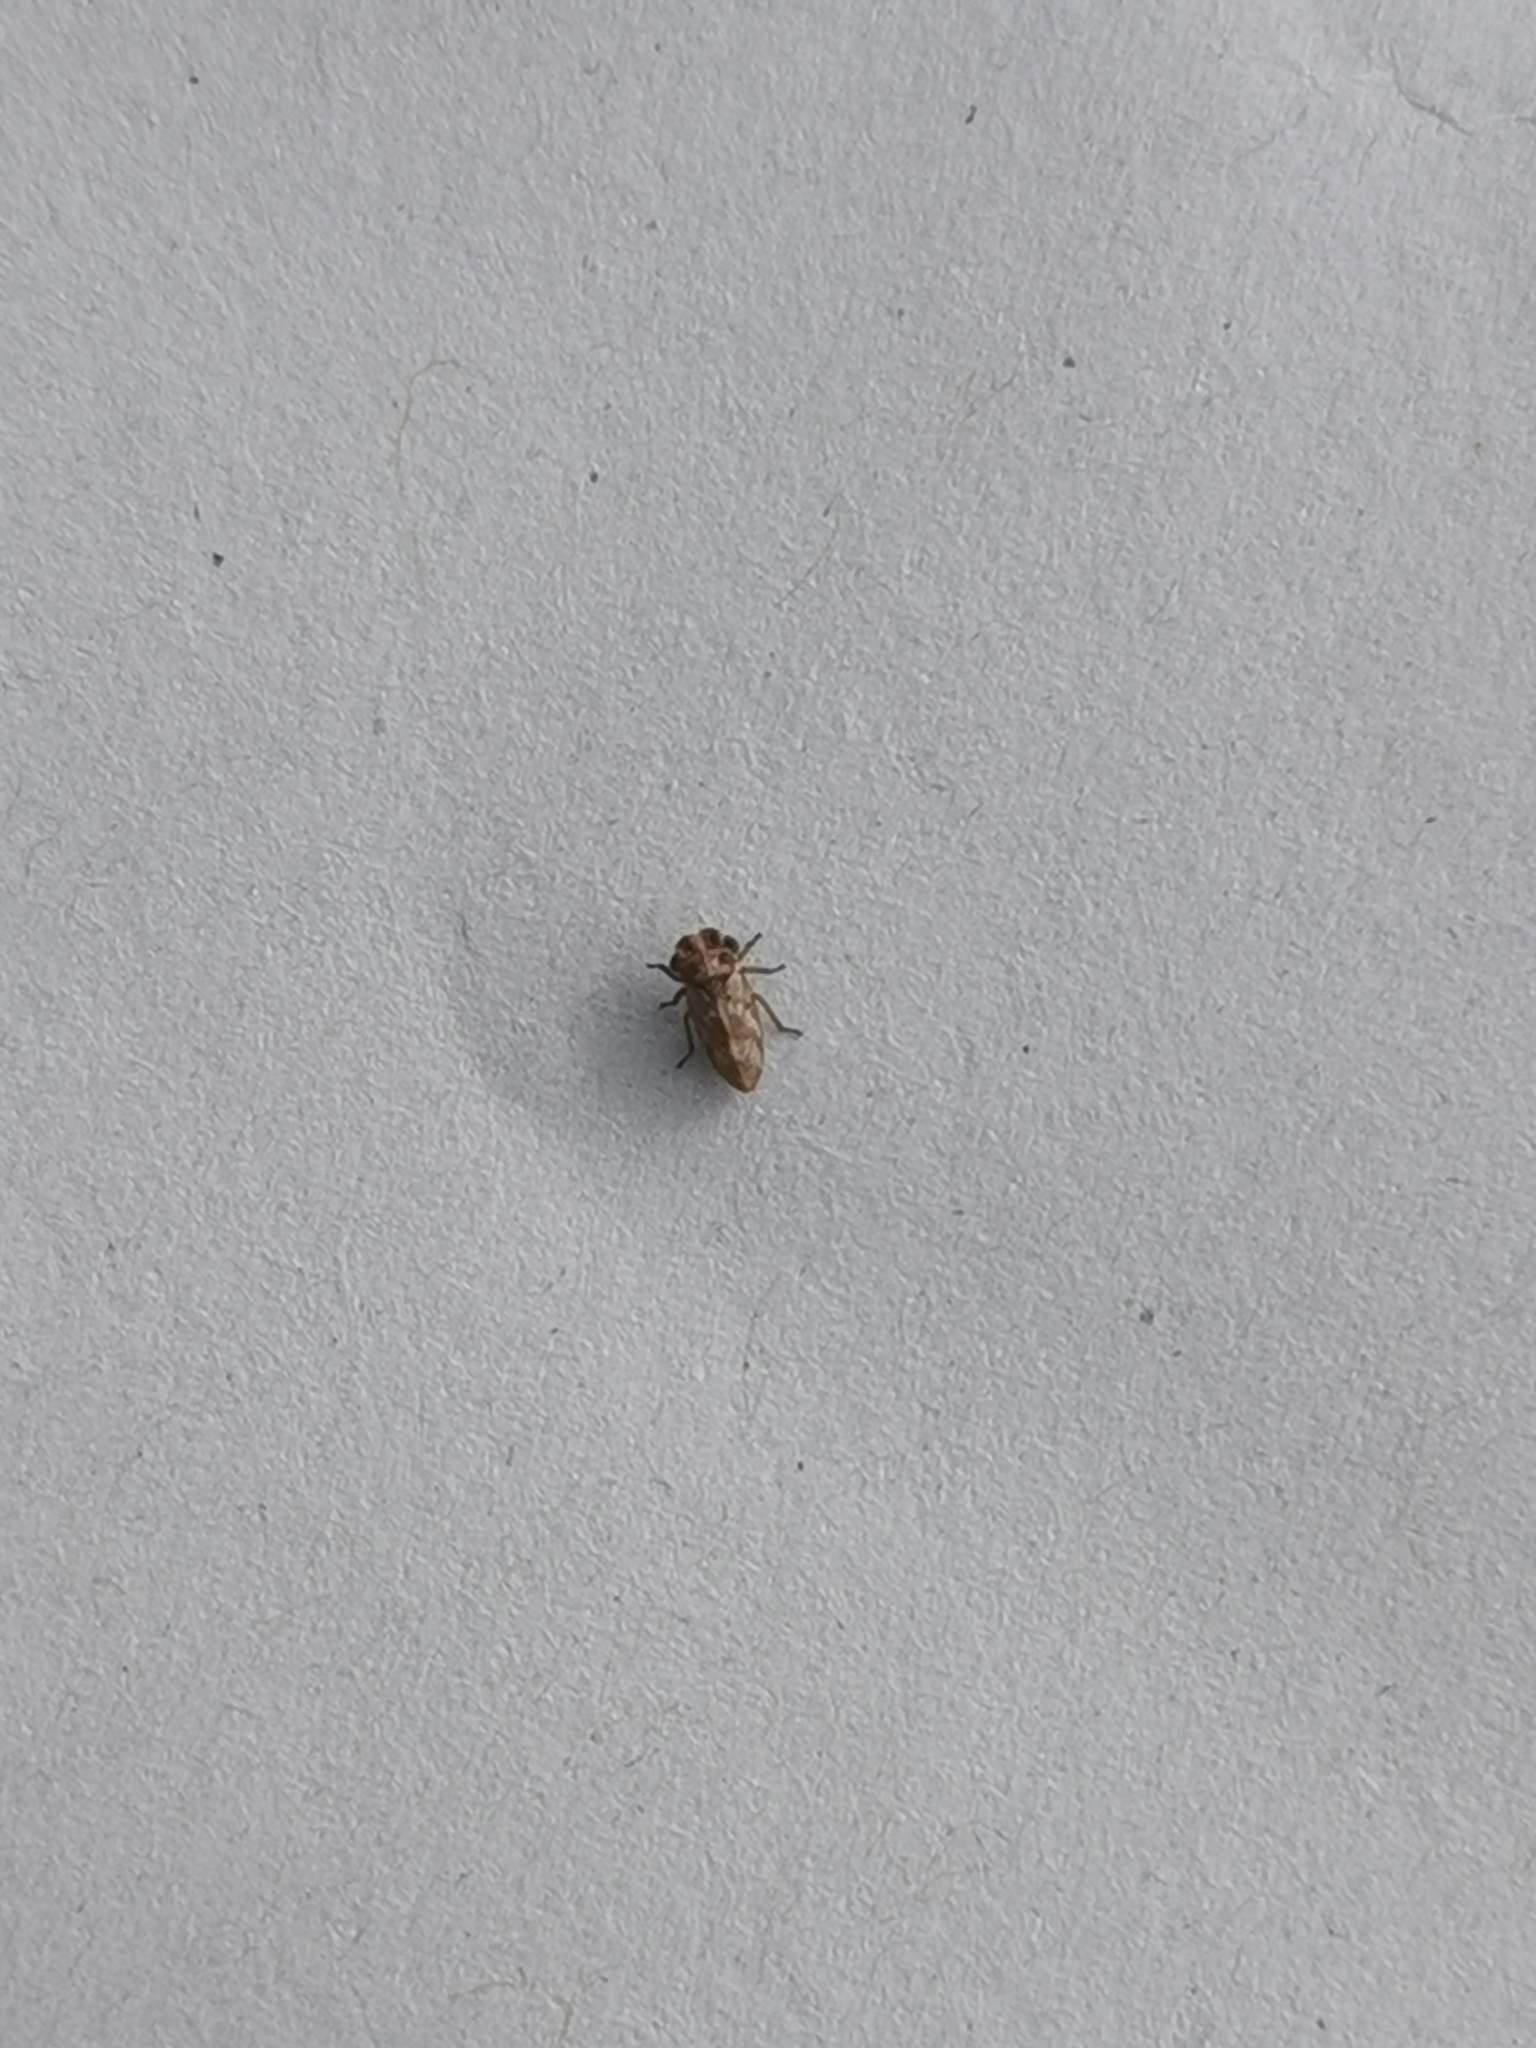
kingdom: Animalia
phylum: Arthropoda
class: Insecta
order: Hemiptera
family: Cicadellidae
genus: Ulopa
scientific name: Ulopa reticulata
